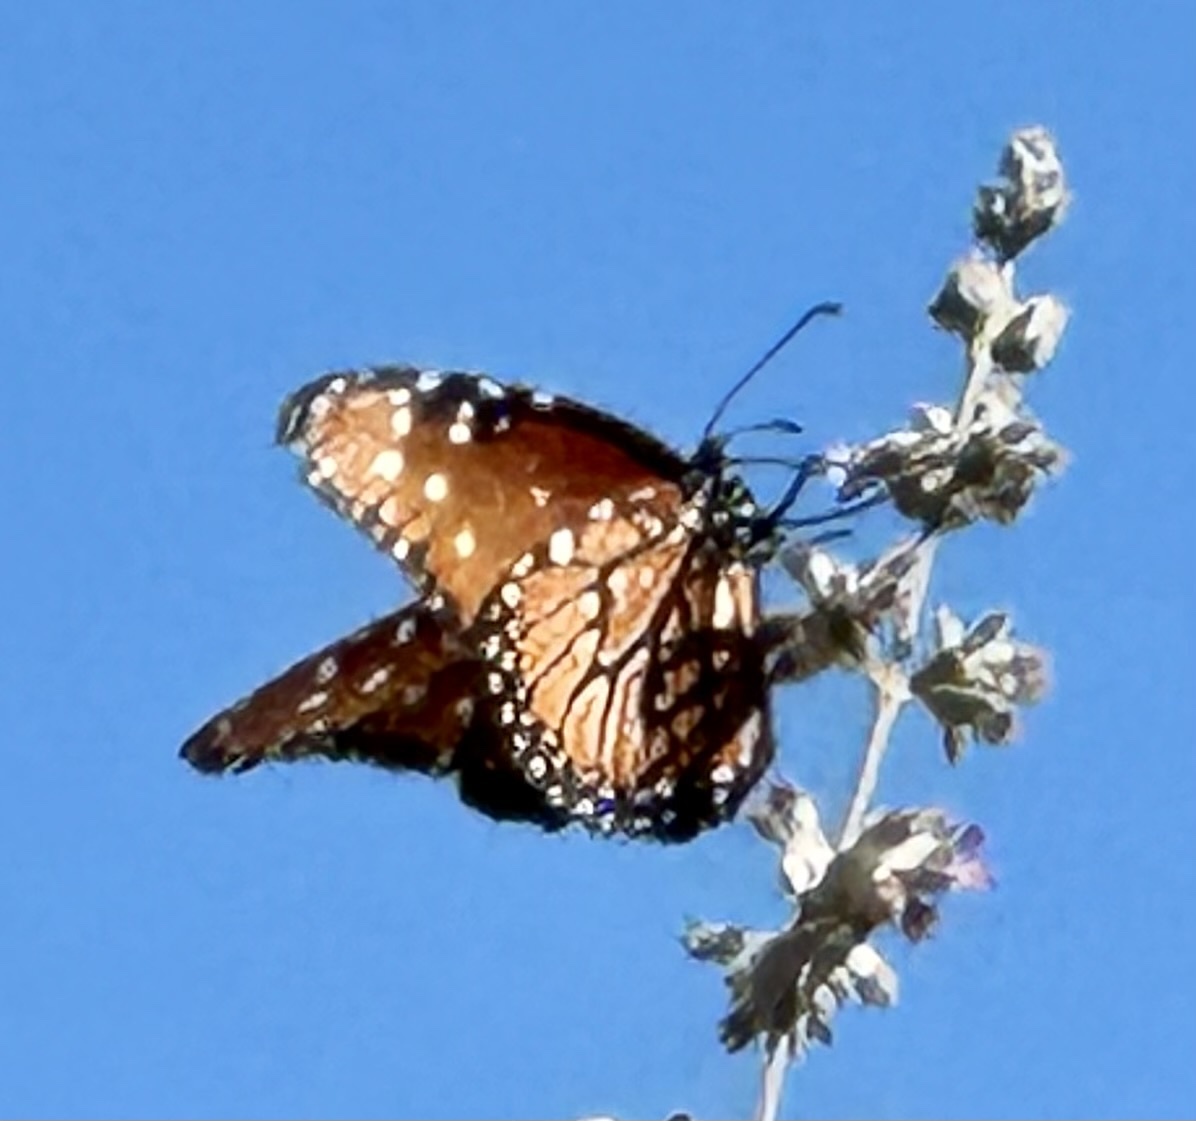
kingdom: Animalia
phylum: Arthropoda
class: Insecta
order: Lepidoptera
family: Nymphalidae
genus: Danaus
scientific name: Danaus gilippus
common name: Queen
